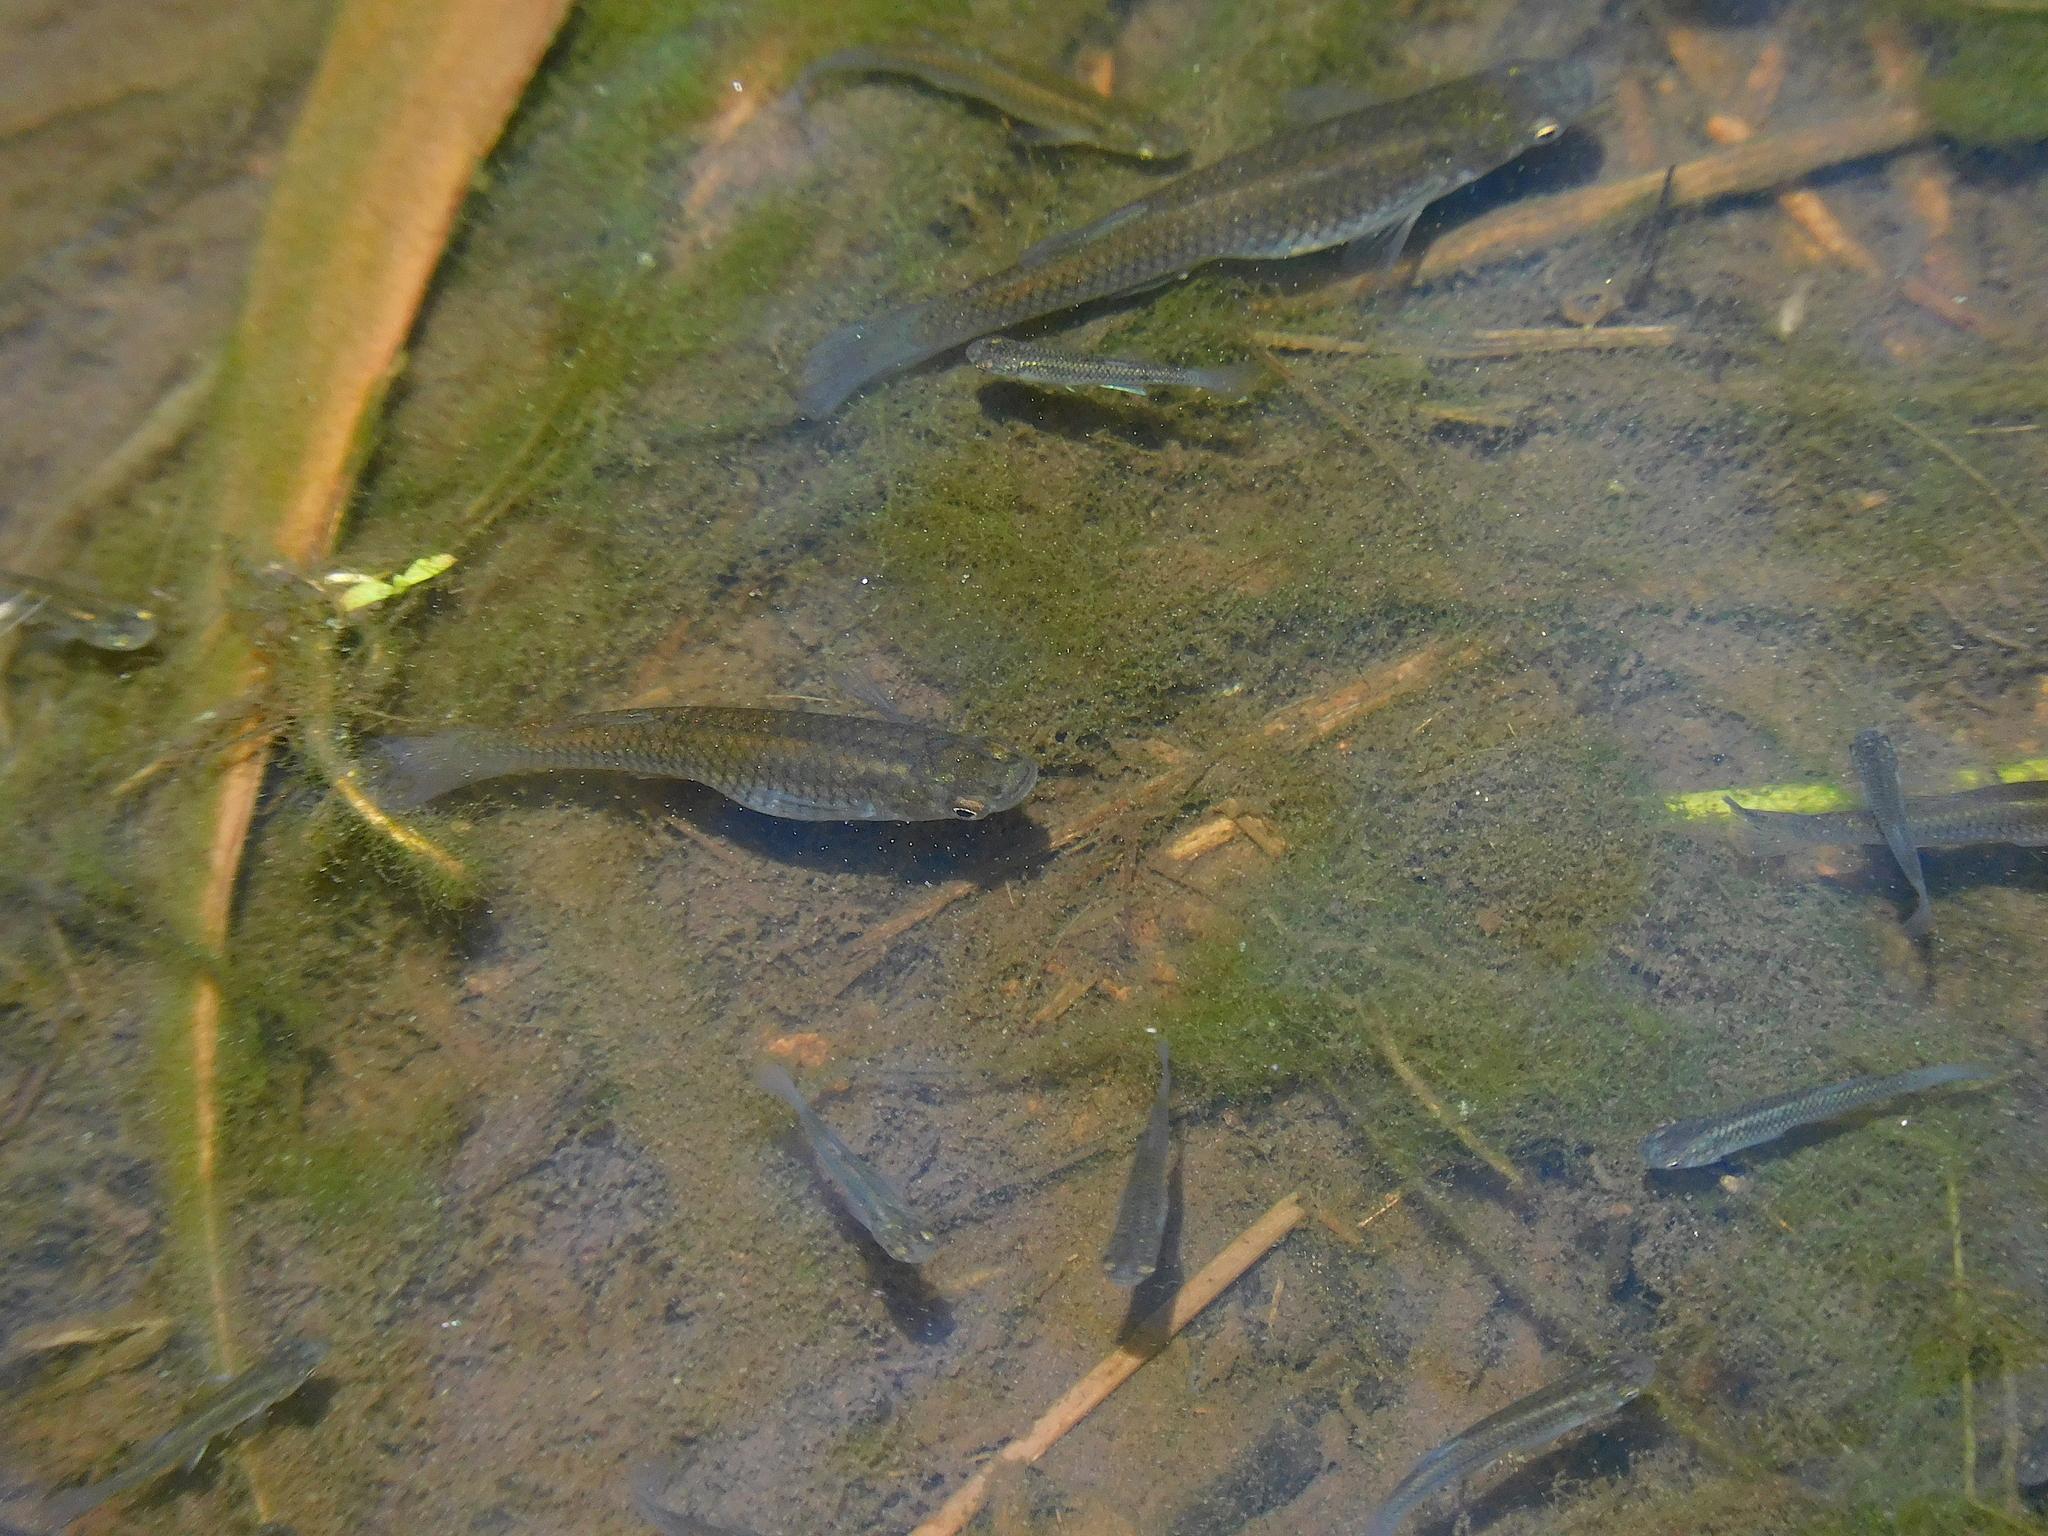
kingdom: Animalia
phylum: Chordata
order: Cyprinodontiformes
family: Poeciliidae
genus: Gambusia
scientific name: Gambusia affinis
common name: Mosquitofish
